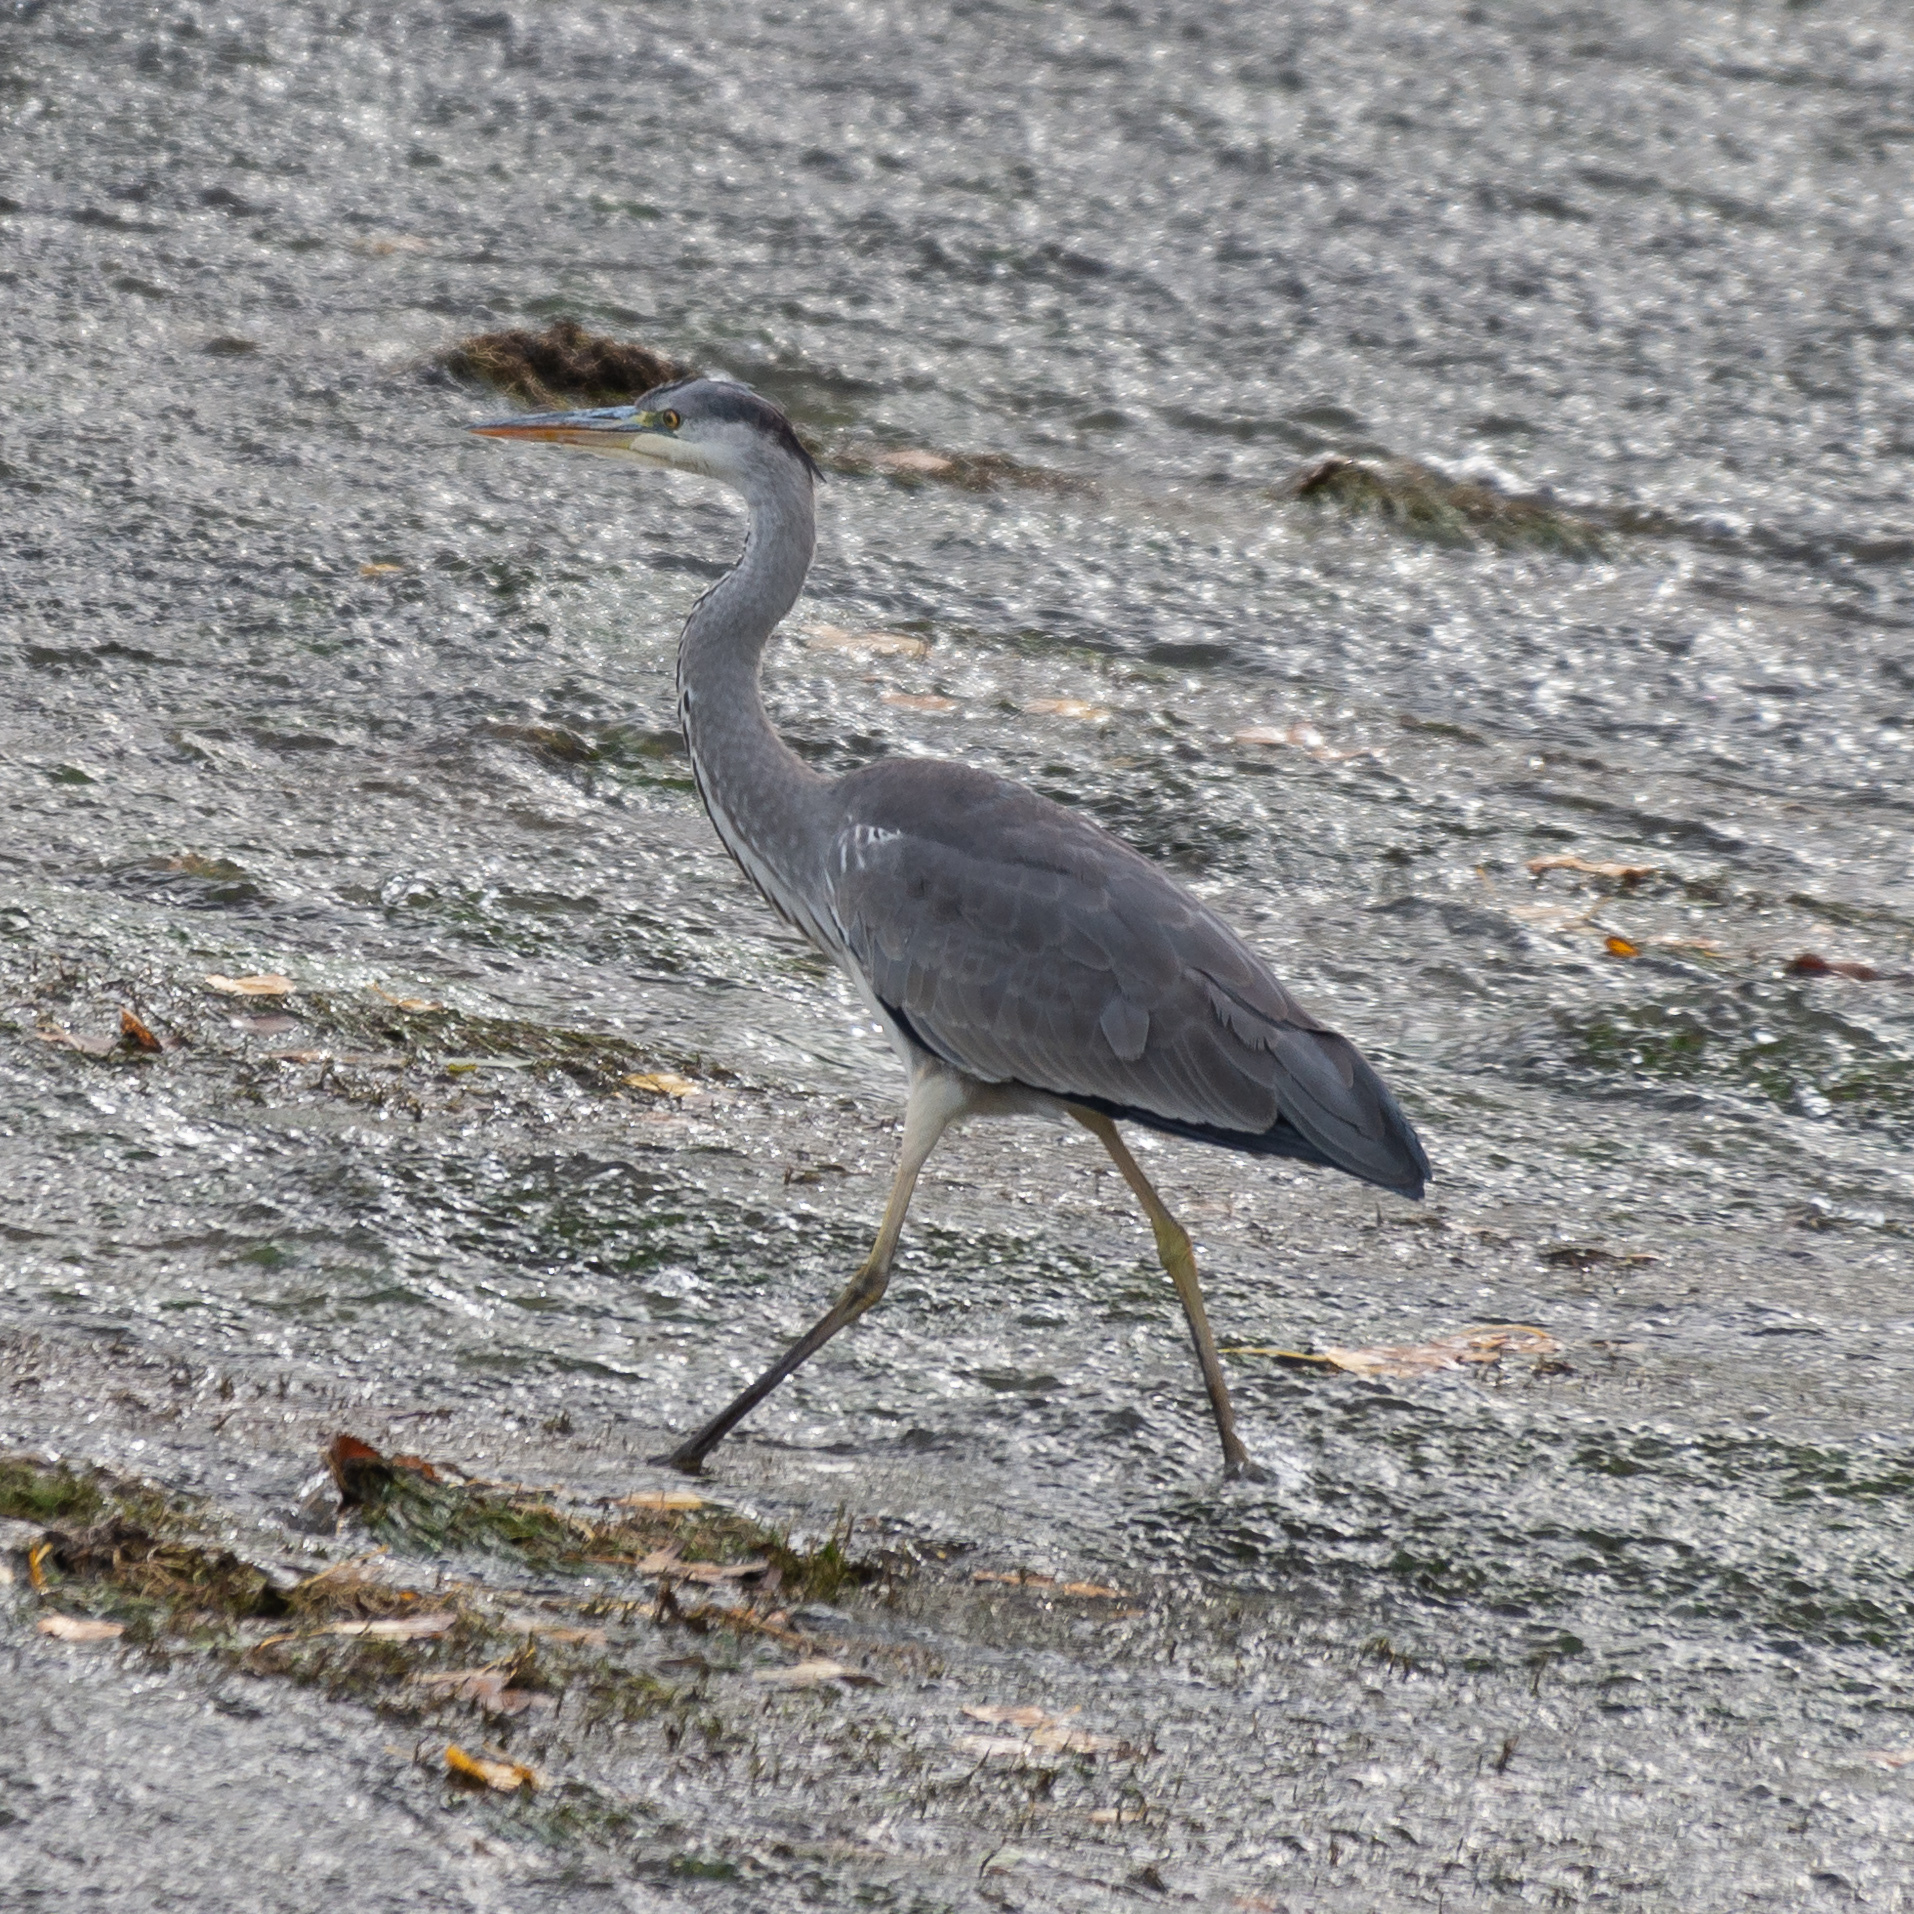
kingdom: Animalia
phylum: Chordata
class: Aves
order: Pelecaniformes
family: Ardeidae
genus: Ardea
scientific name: Ardea cinerea
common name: Grey heron
